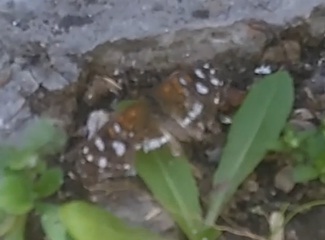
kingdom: Animalia
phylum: Arthropoda
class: Insecta
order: Lepidoptera
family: Nymphalidae
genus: Ortilia
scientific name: Ortilia ithra
